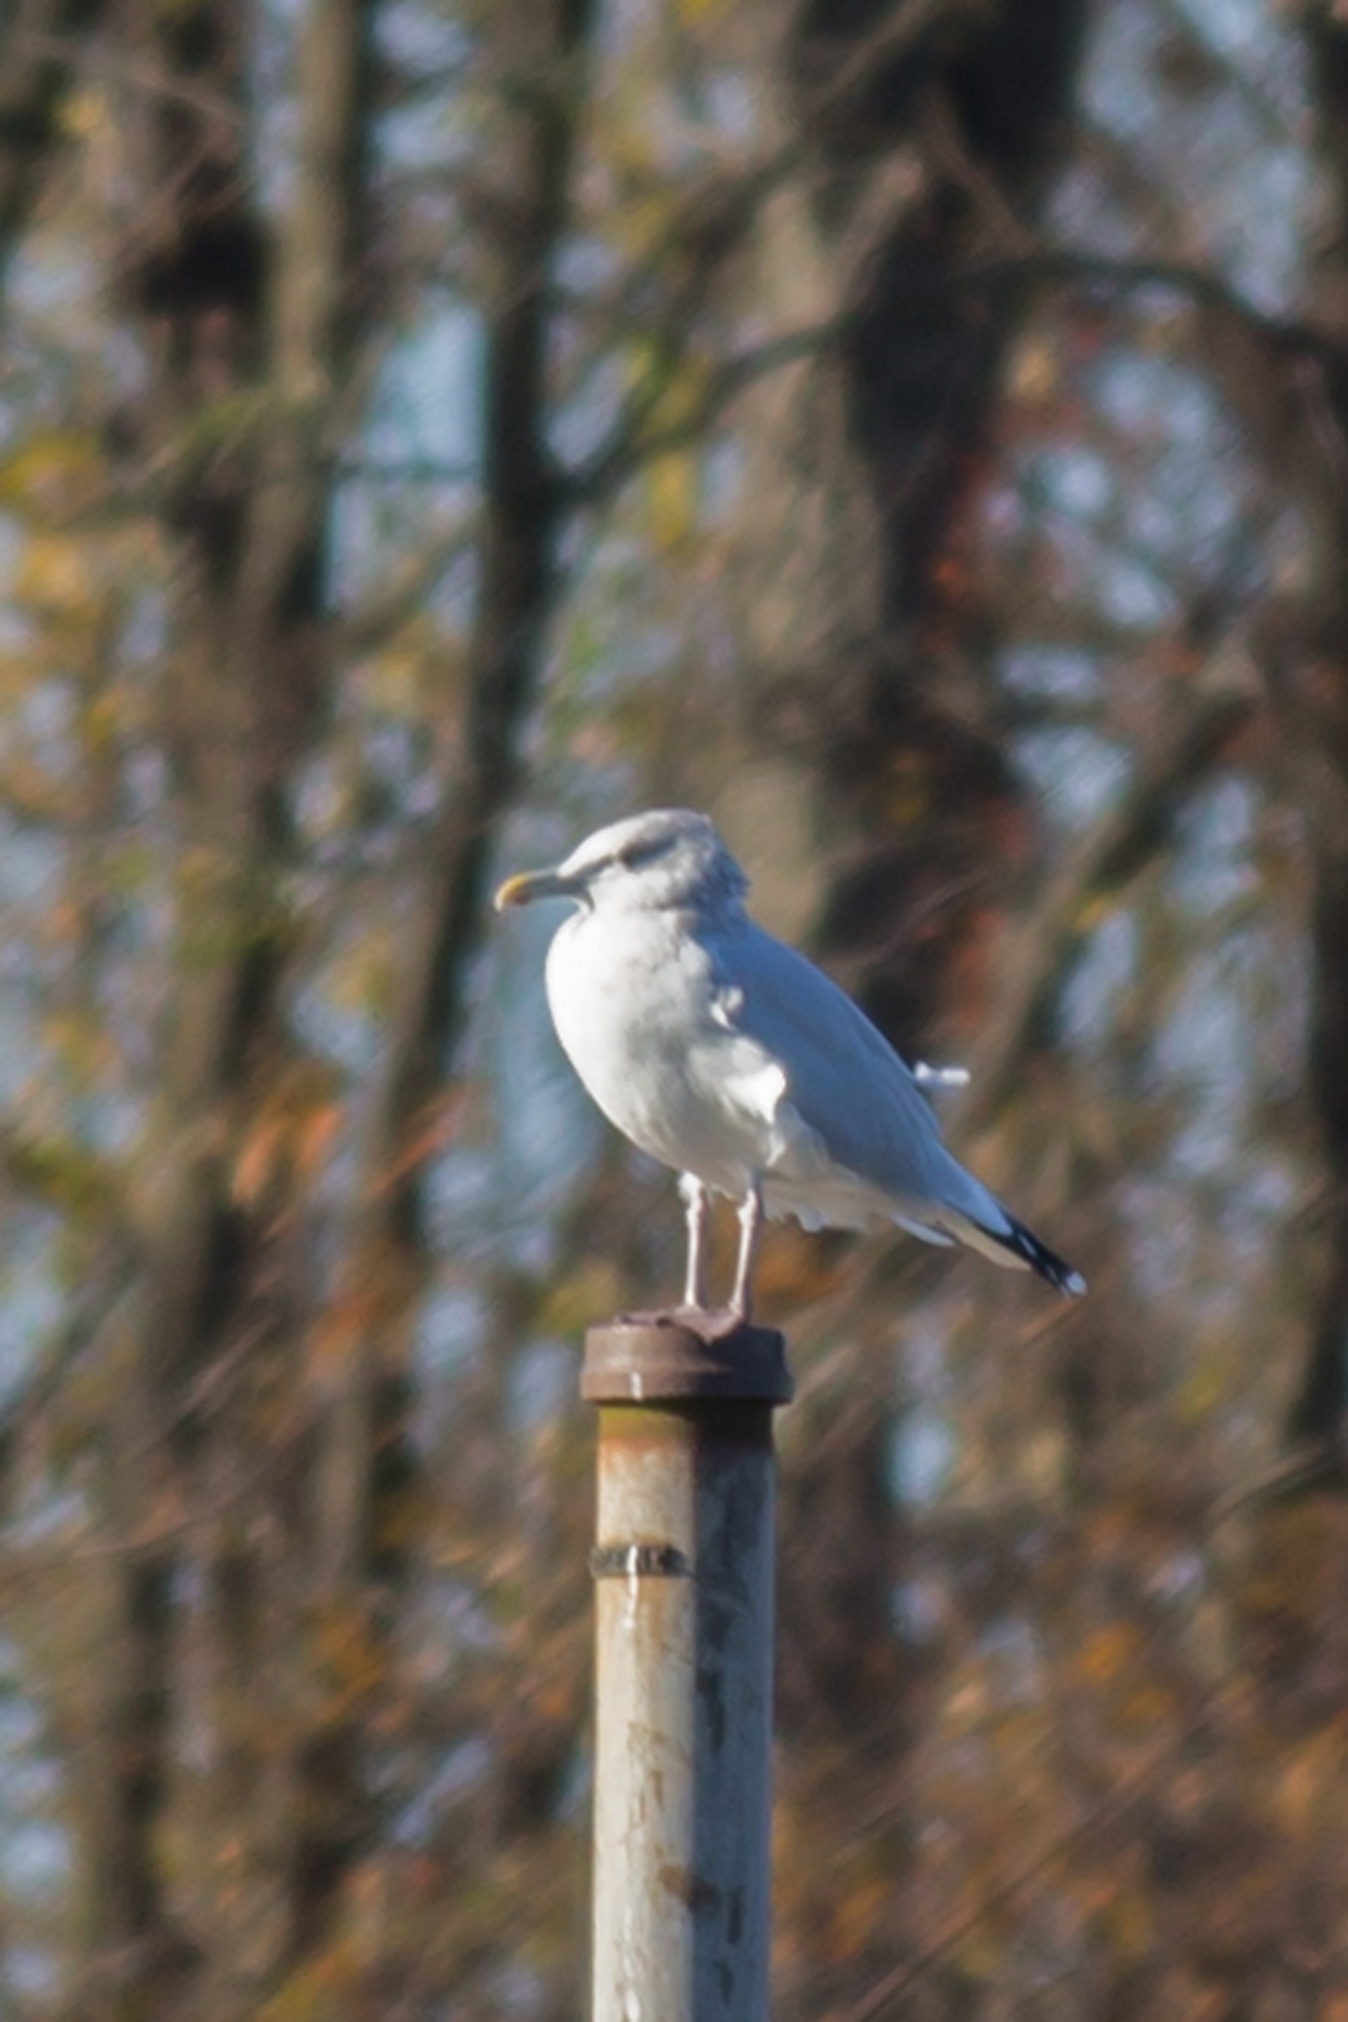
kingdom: Animalia
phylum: Chordata
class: Aves
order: Charadriiformes
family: Laridae
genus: Larus
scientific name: Larus argentatus
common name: Herring gull
